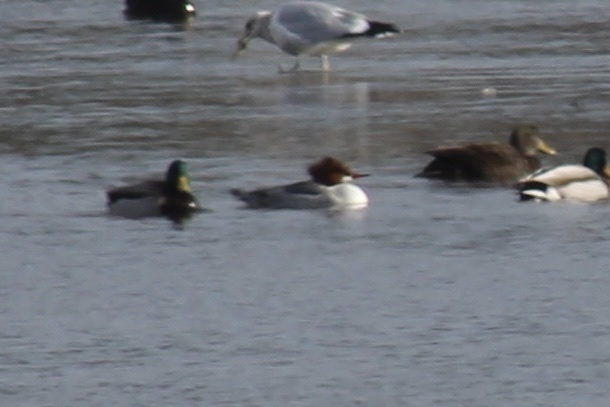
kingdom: Animalia
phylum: Chordata
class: Aves
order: Anseriformes
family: Anatidae
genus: Mergus
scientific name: Mergus merganser
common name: Common merganser
